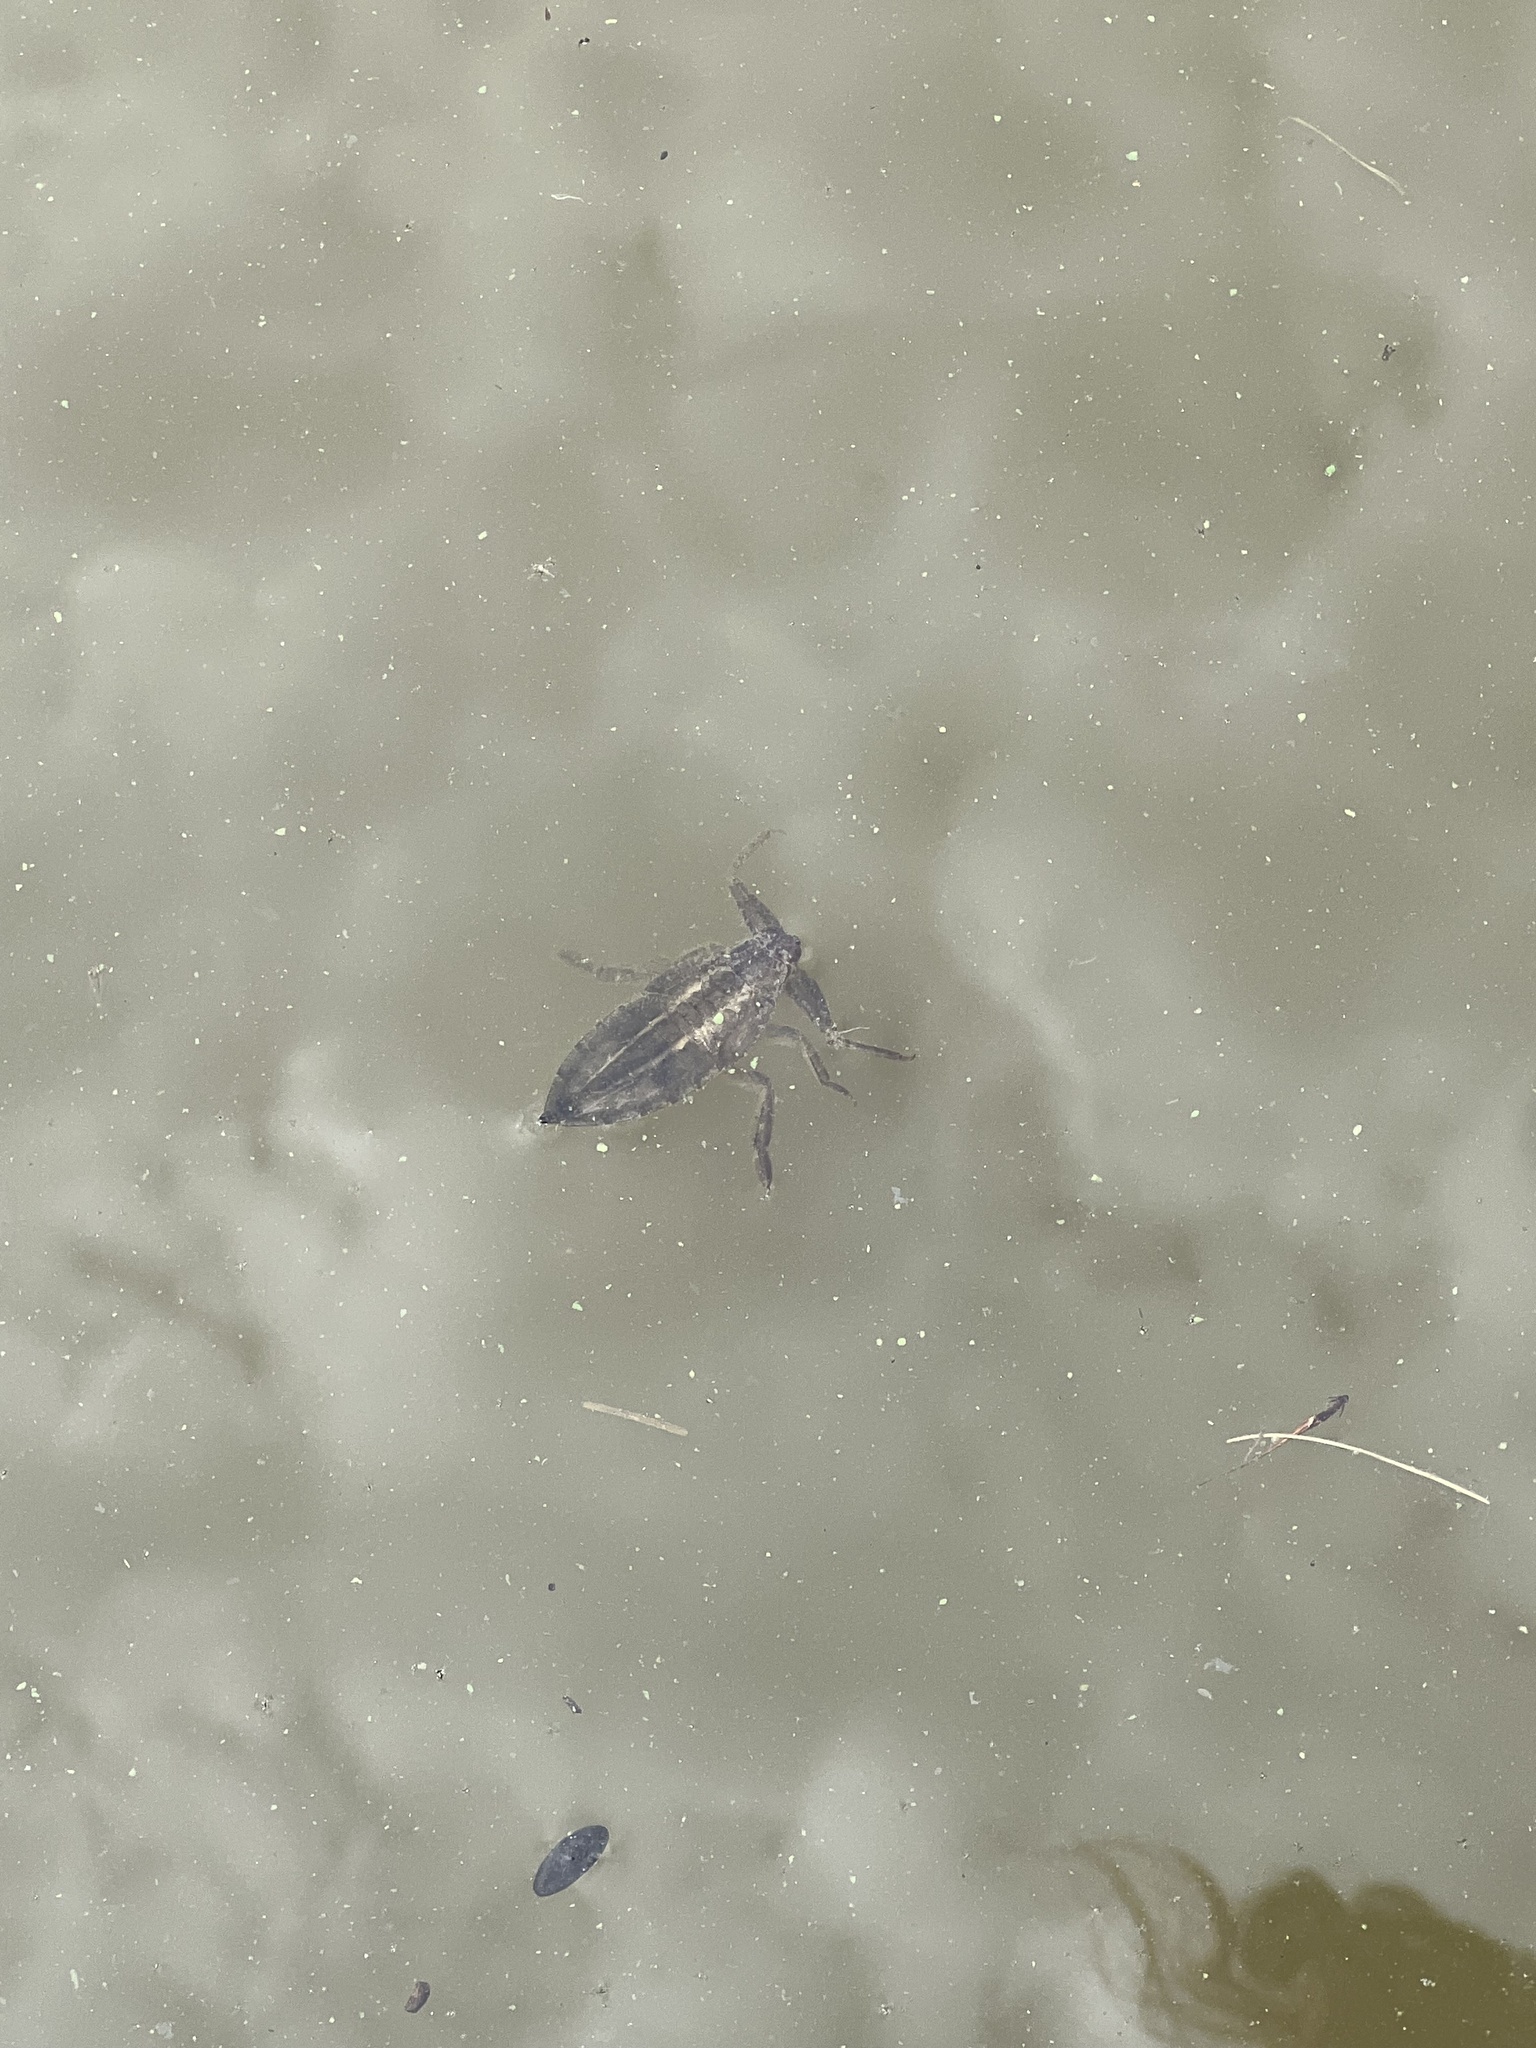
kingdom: Animalia
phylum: Arthropoda
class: Insecta
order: Hemiptera
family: Belostomatidae
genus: Lethocerus
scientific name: Lethocerus uhleri
